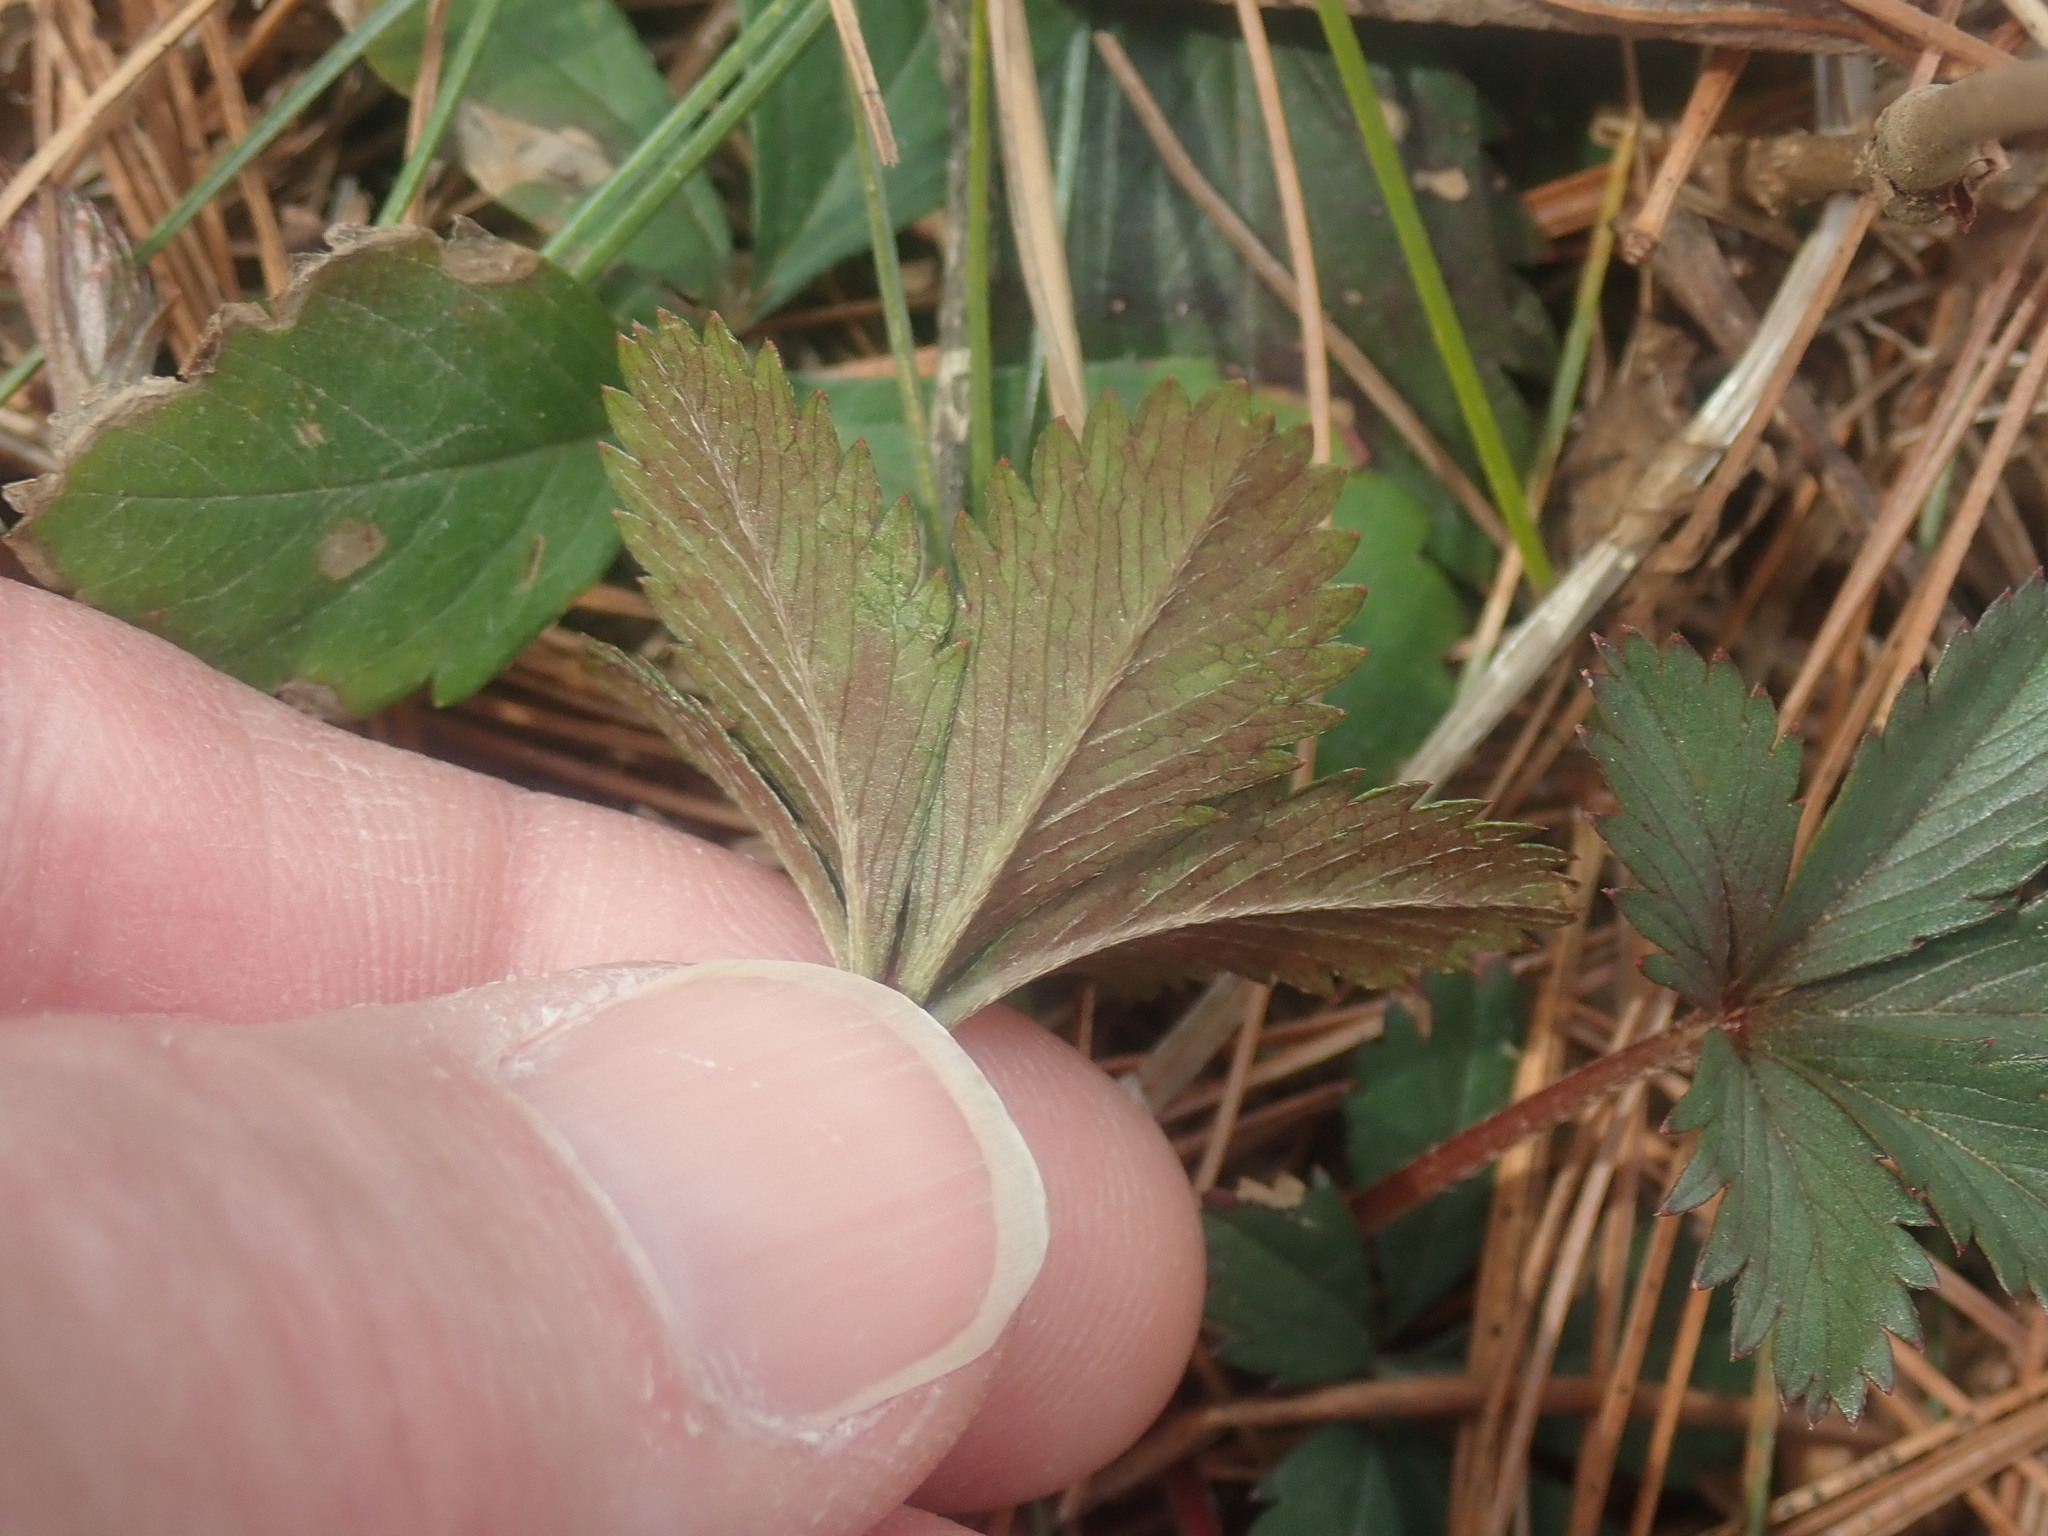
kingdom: Plantae
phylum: Tracheophyta
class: Magnoliopsida
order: Rosales
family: Rosaceae
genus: Potentilla
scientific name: Potentilla canadensis
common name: Canada cinquefoil
